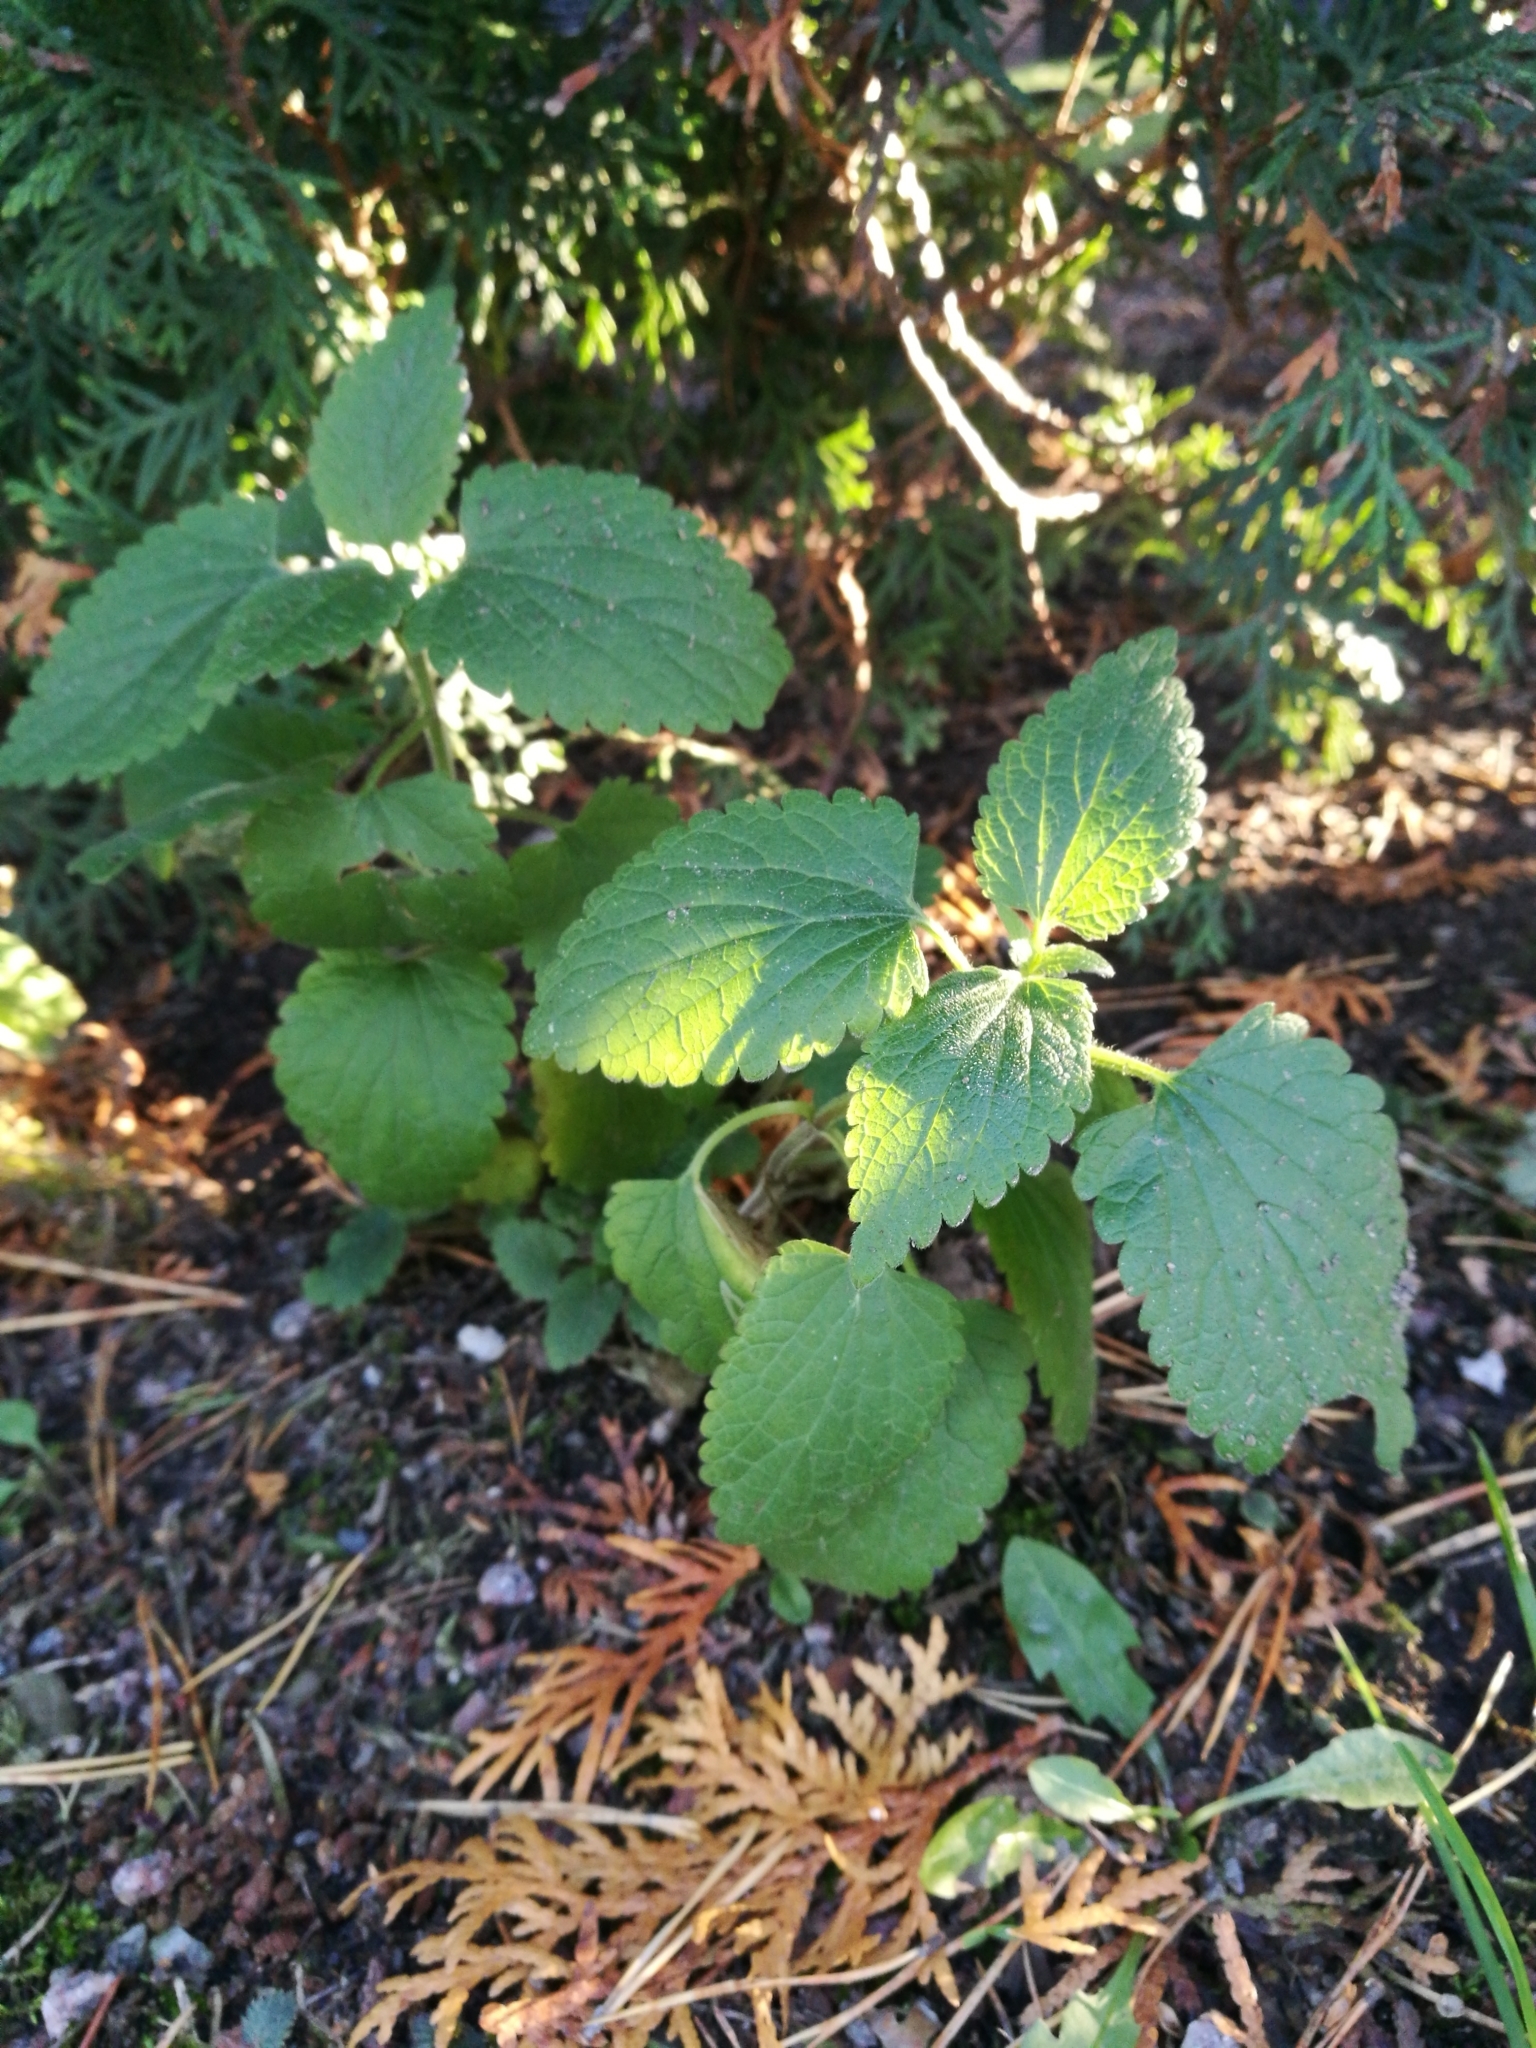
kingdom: Plantae
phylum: Tracheophyta
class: Magnoliopsida
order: Lamiales
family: Lamiaceae
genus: Lamium
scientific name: Lamium album
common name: White dead-nettle
